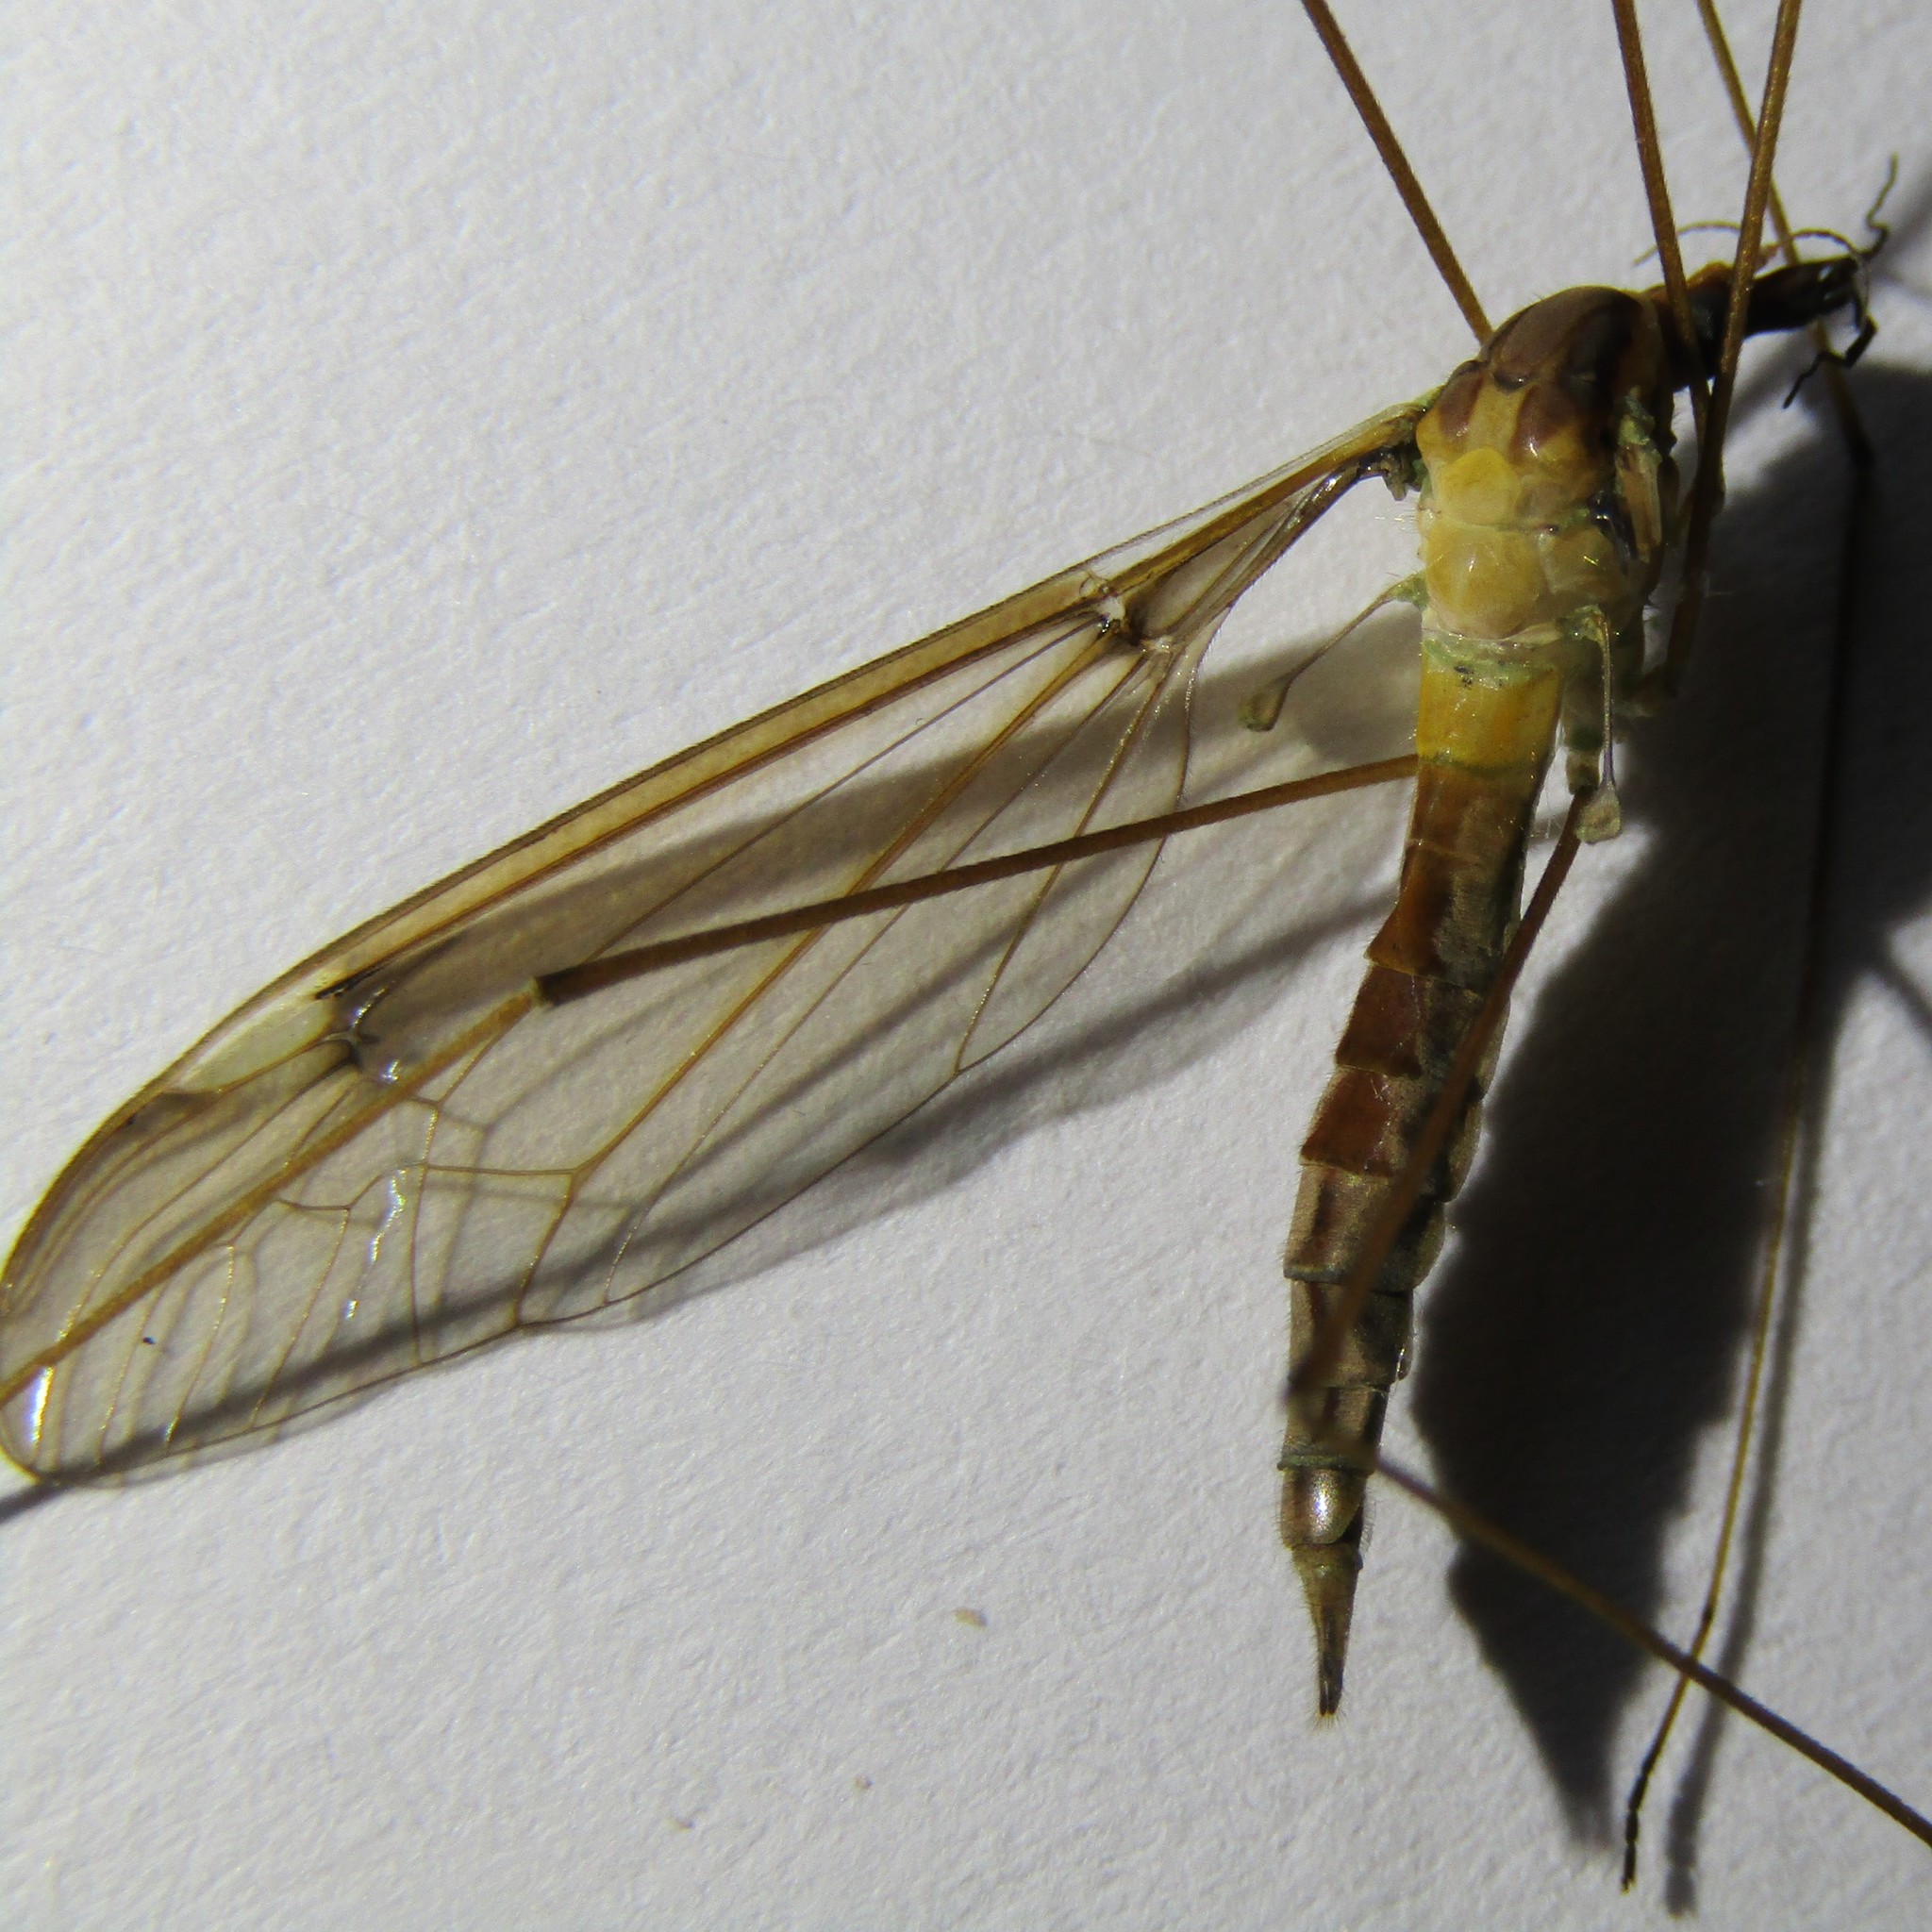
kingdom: Animalia
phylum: Arthropoda
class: Insecta
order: Diptera
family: Tipulidae
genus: Leptotarsus
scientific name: Leptotarsus albistigma
